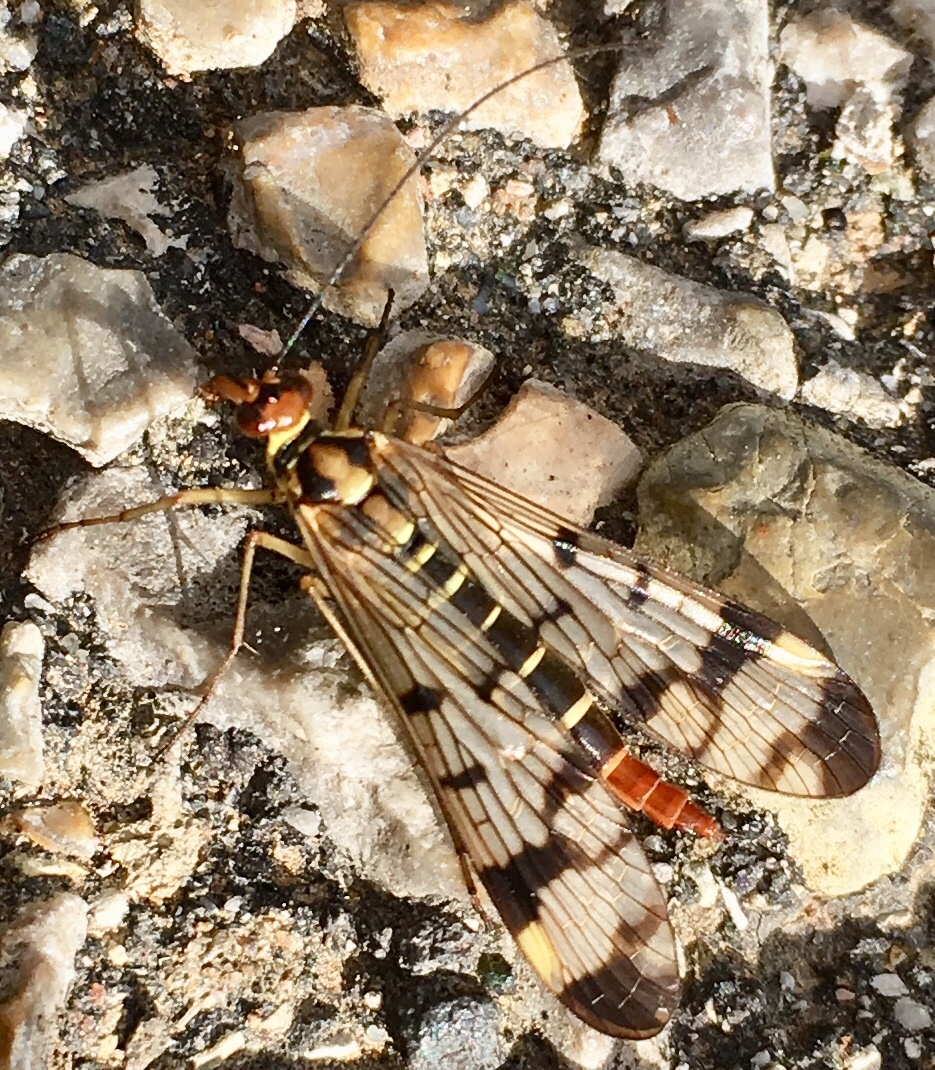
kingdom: Animalia
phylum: Arthropoda
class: Insecta
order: Mecoptera
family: Panorpidae
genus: Panorpa
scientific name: Panorpa communis
